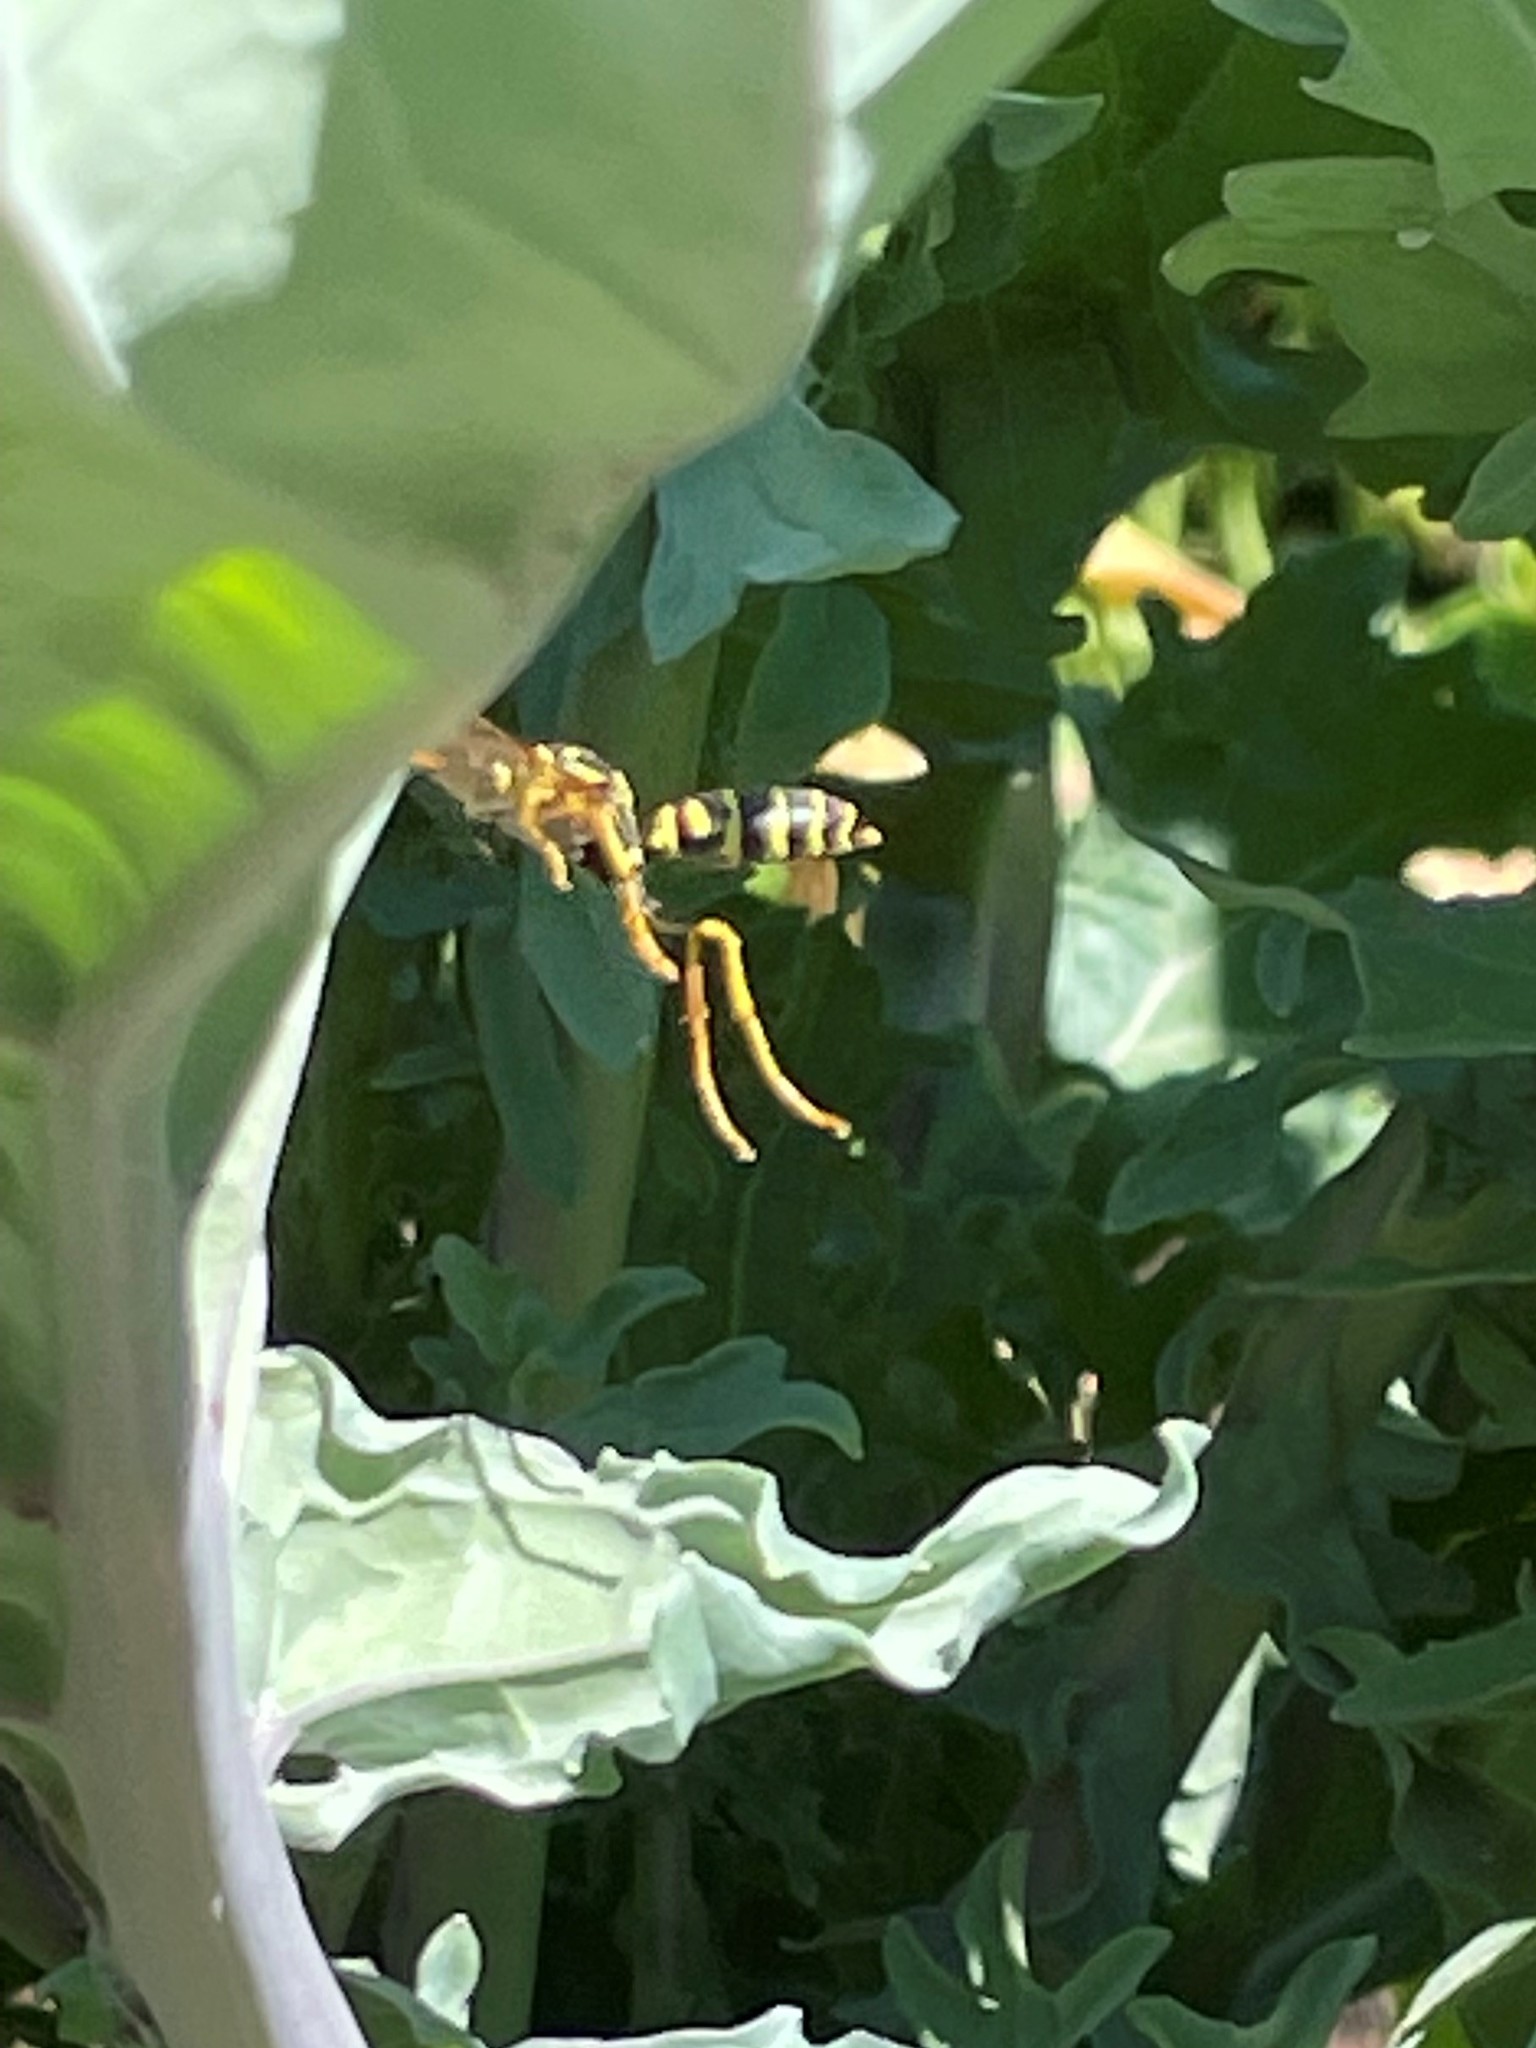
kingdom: Animalia
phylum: Arthropoda
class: Insecta
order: Hymenoptera
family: Eumenidae
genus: Polistes
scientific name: Polistes dominula
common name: Paper wasp
